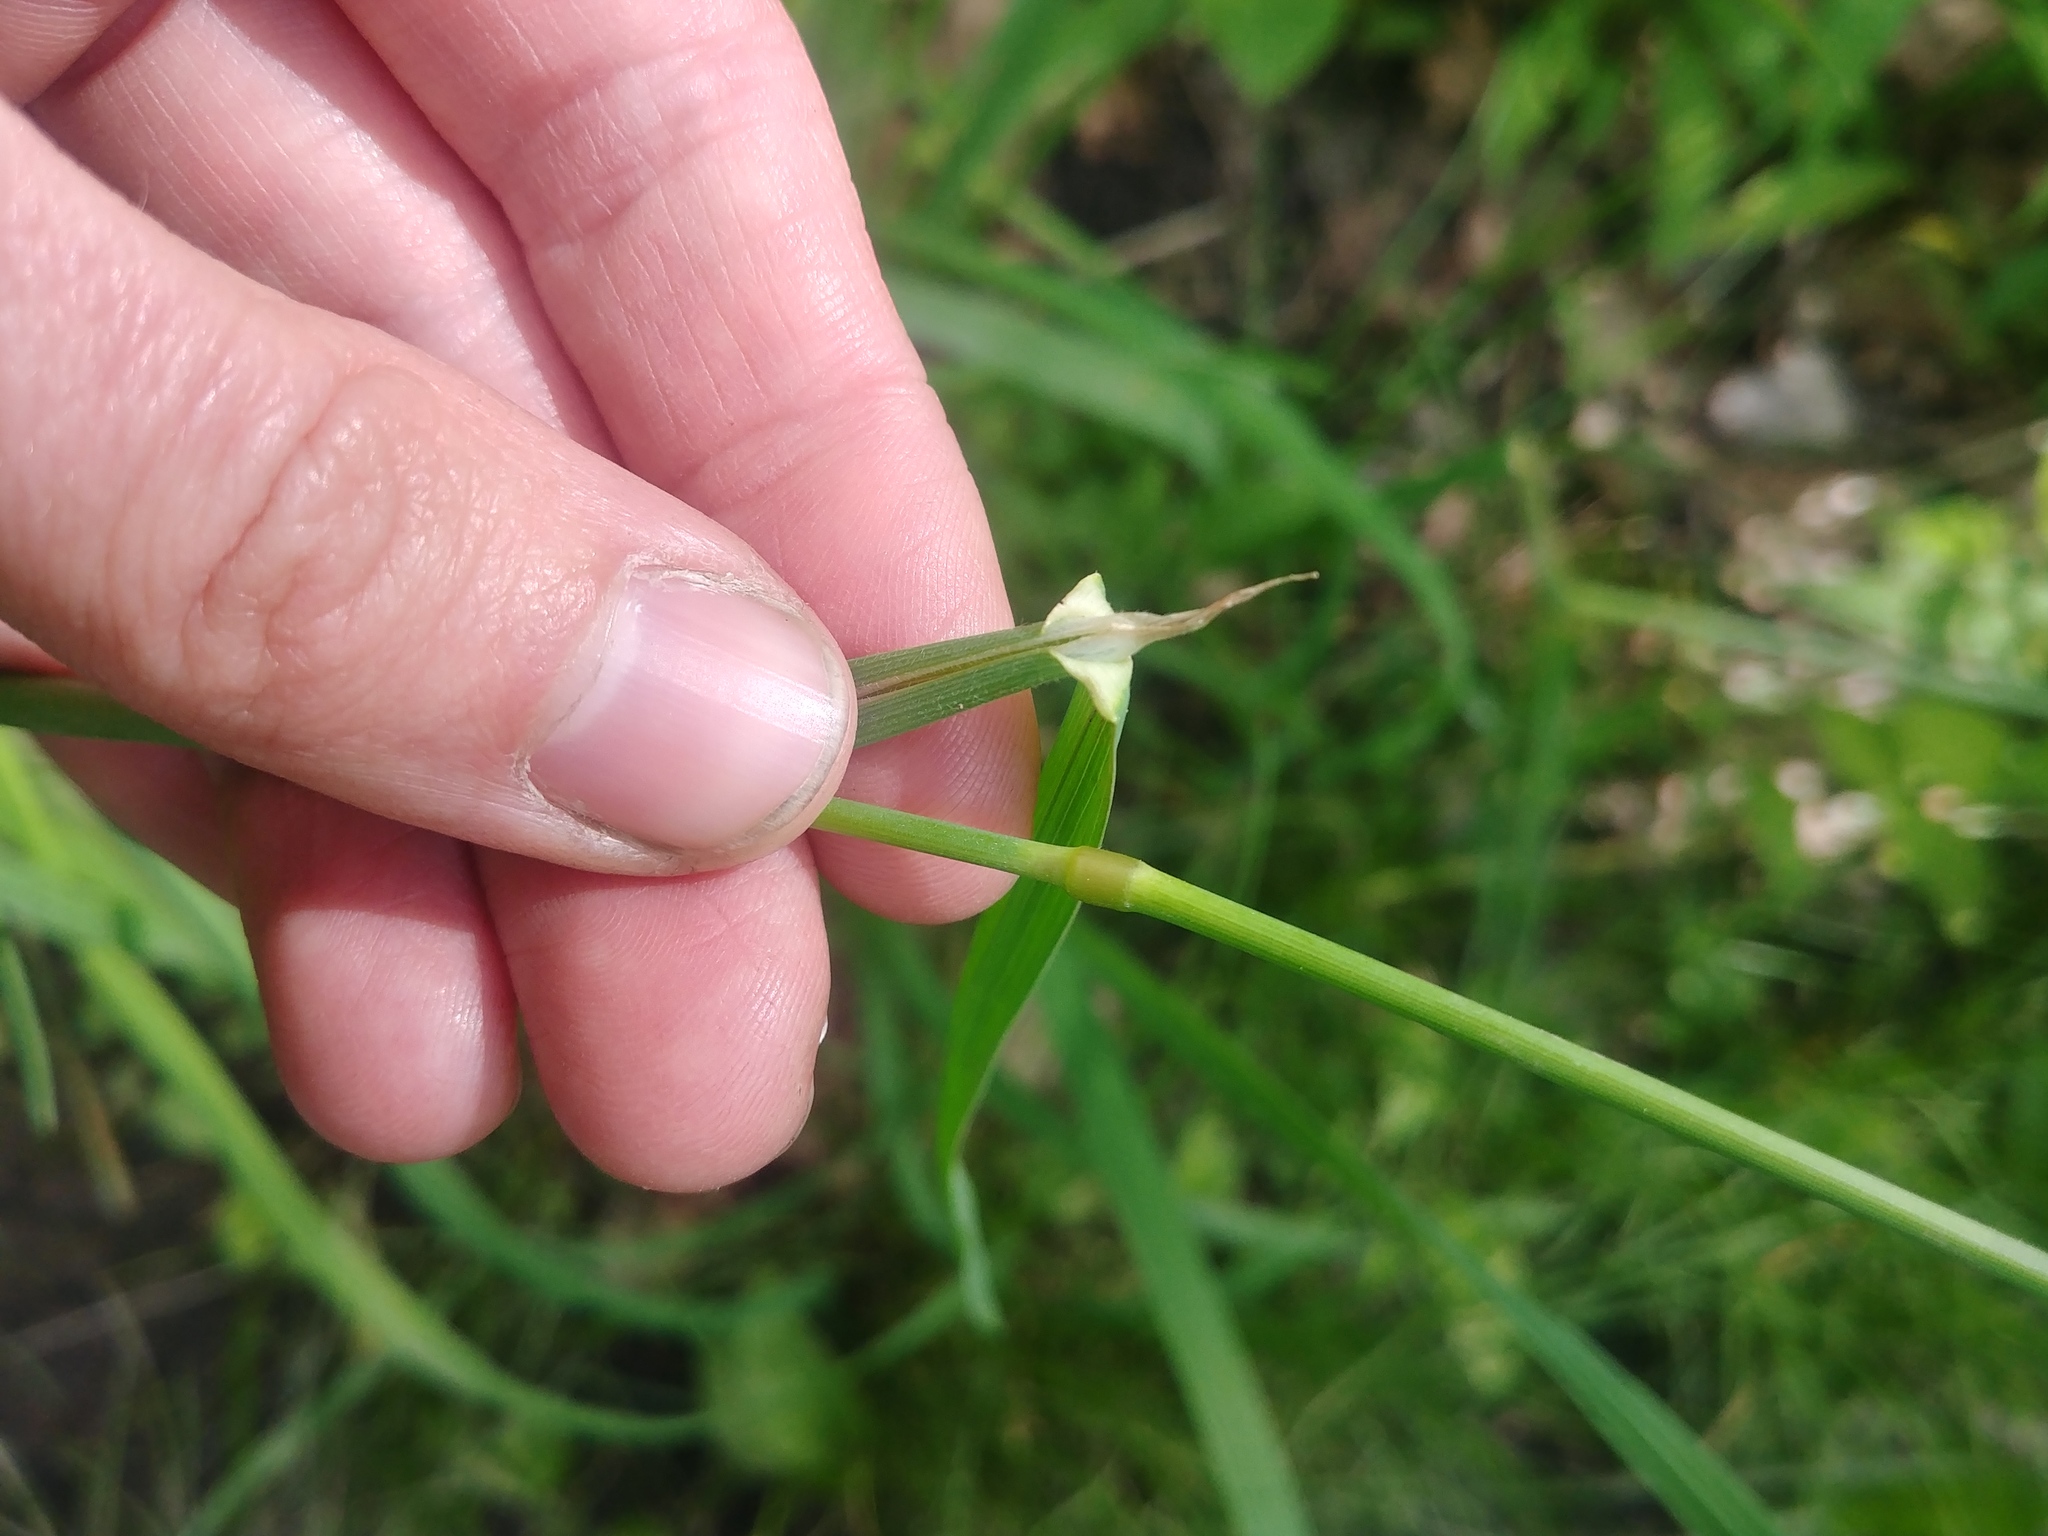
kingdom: Plantae
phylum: Tracheophyta
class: Liliopsida
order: Poales
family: Poaceae
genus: Dactylis
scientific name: Dactylis glomerata
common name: Orchardgrass
